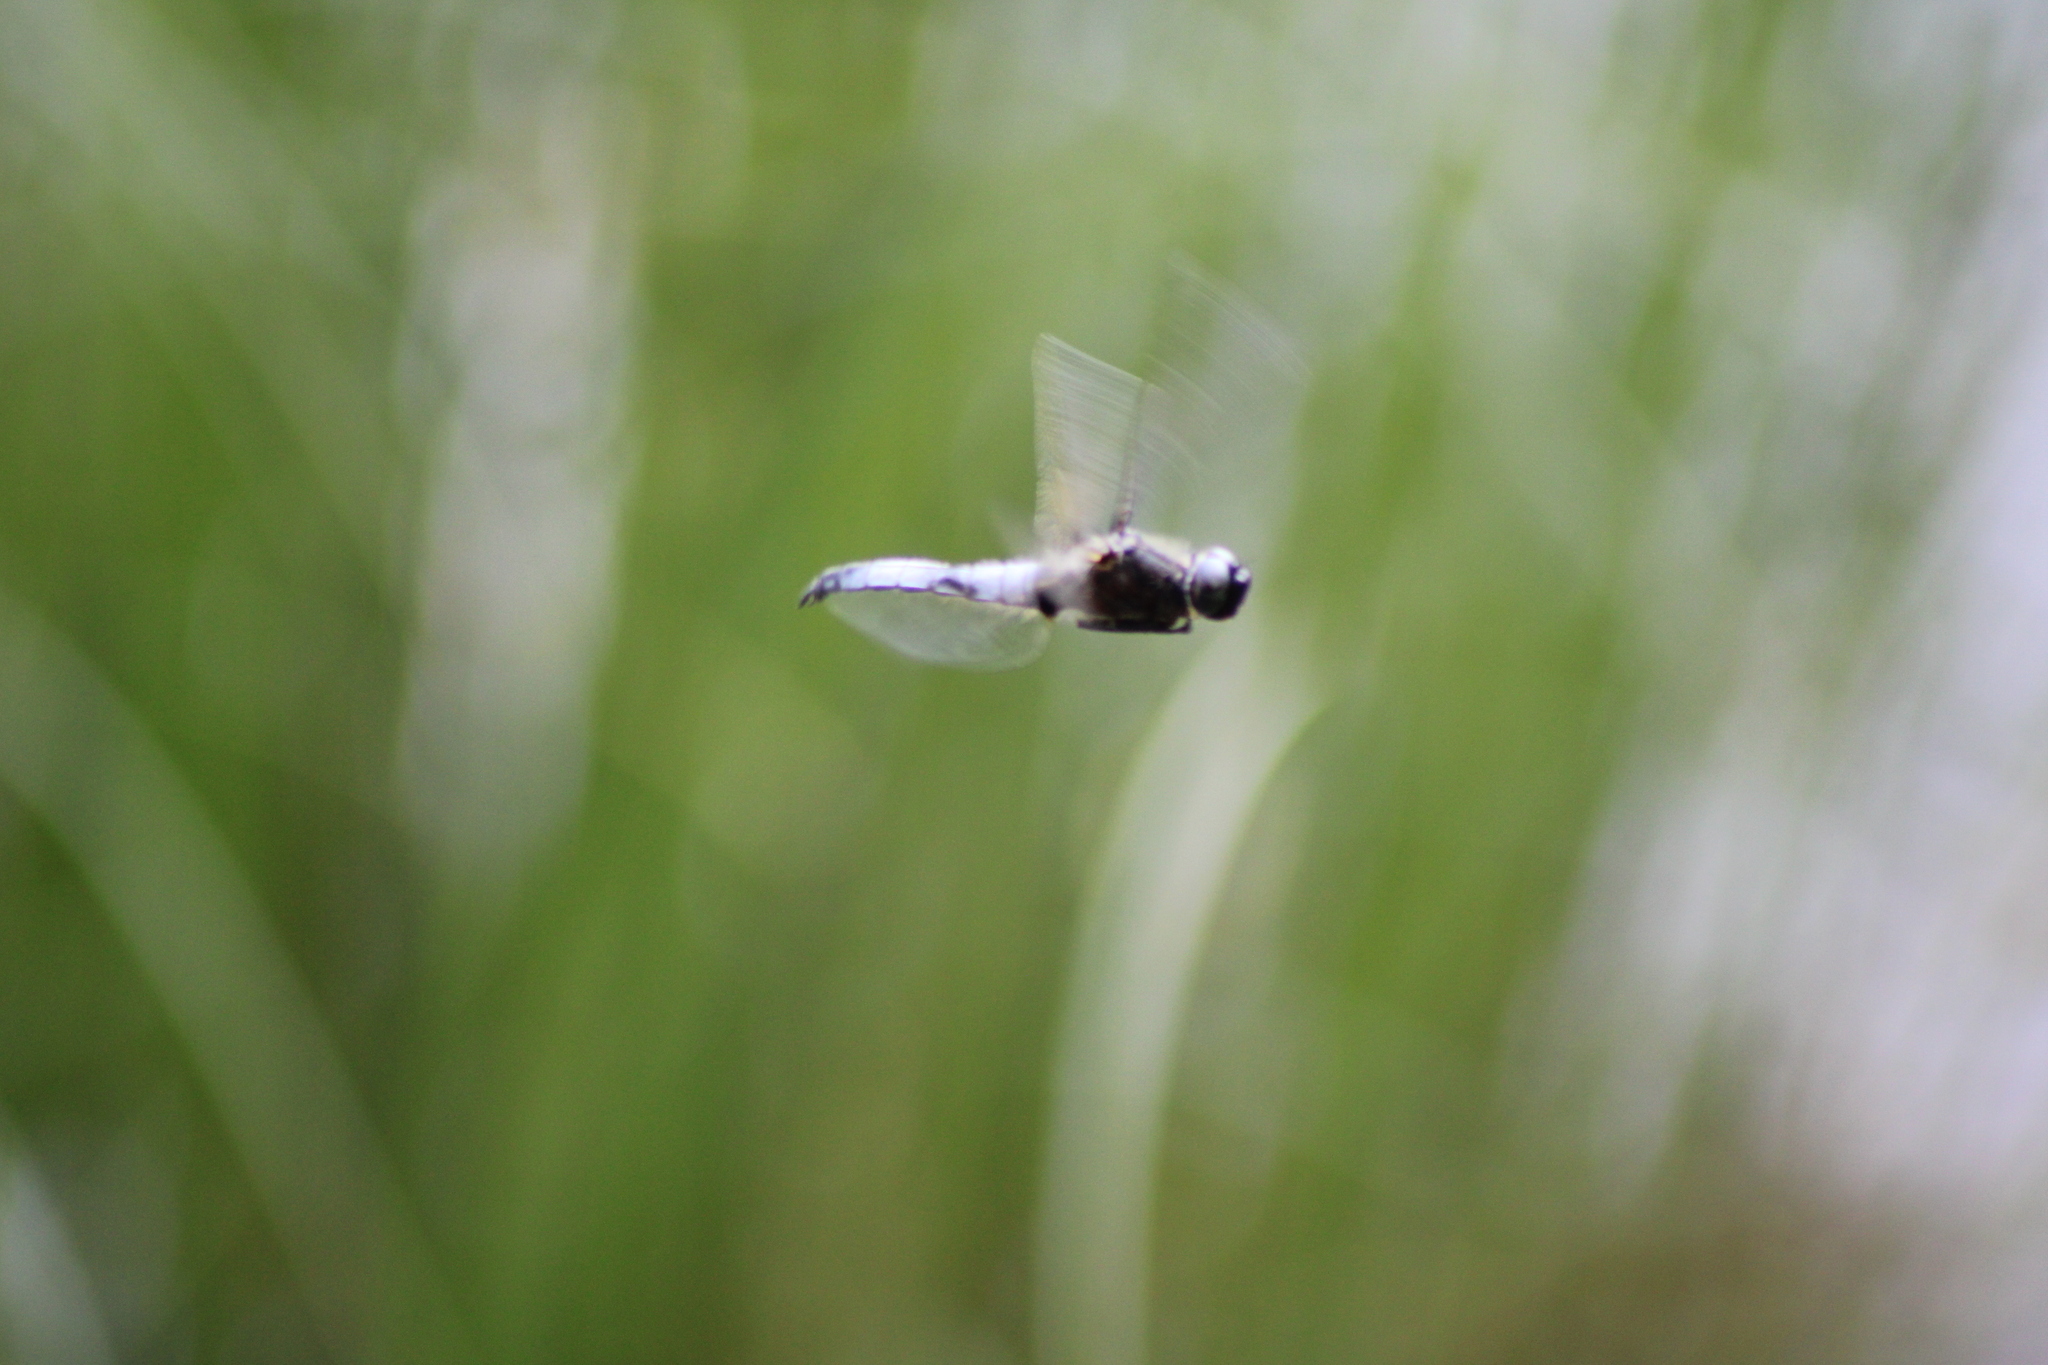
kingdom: Animalia
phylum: Arthropoda
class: Insecta
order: Odonata
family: Libellulidae
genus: Libellula
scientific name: Libellula fulva
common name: Blue chaser
